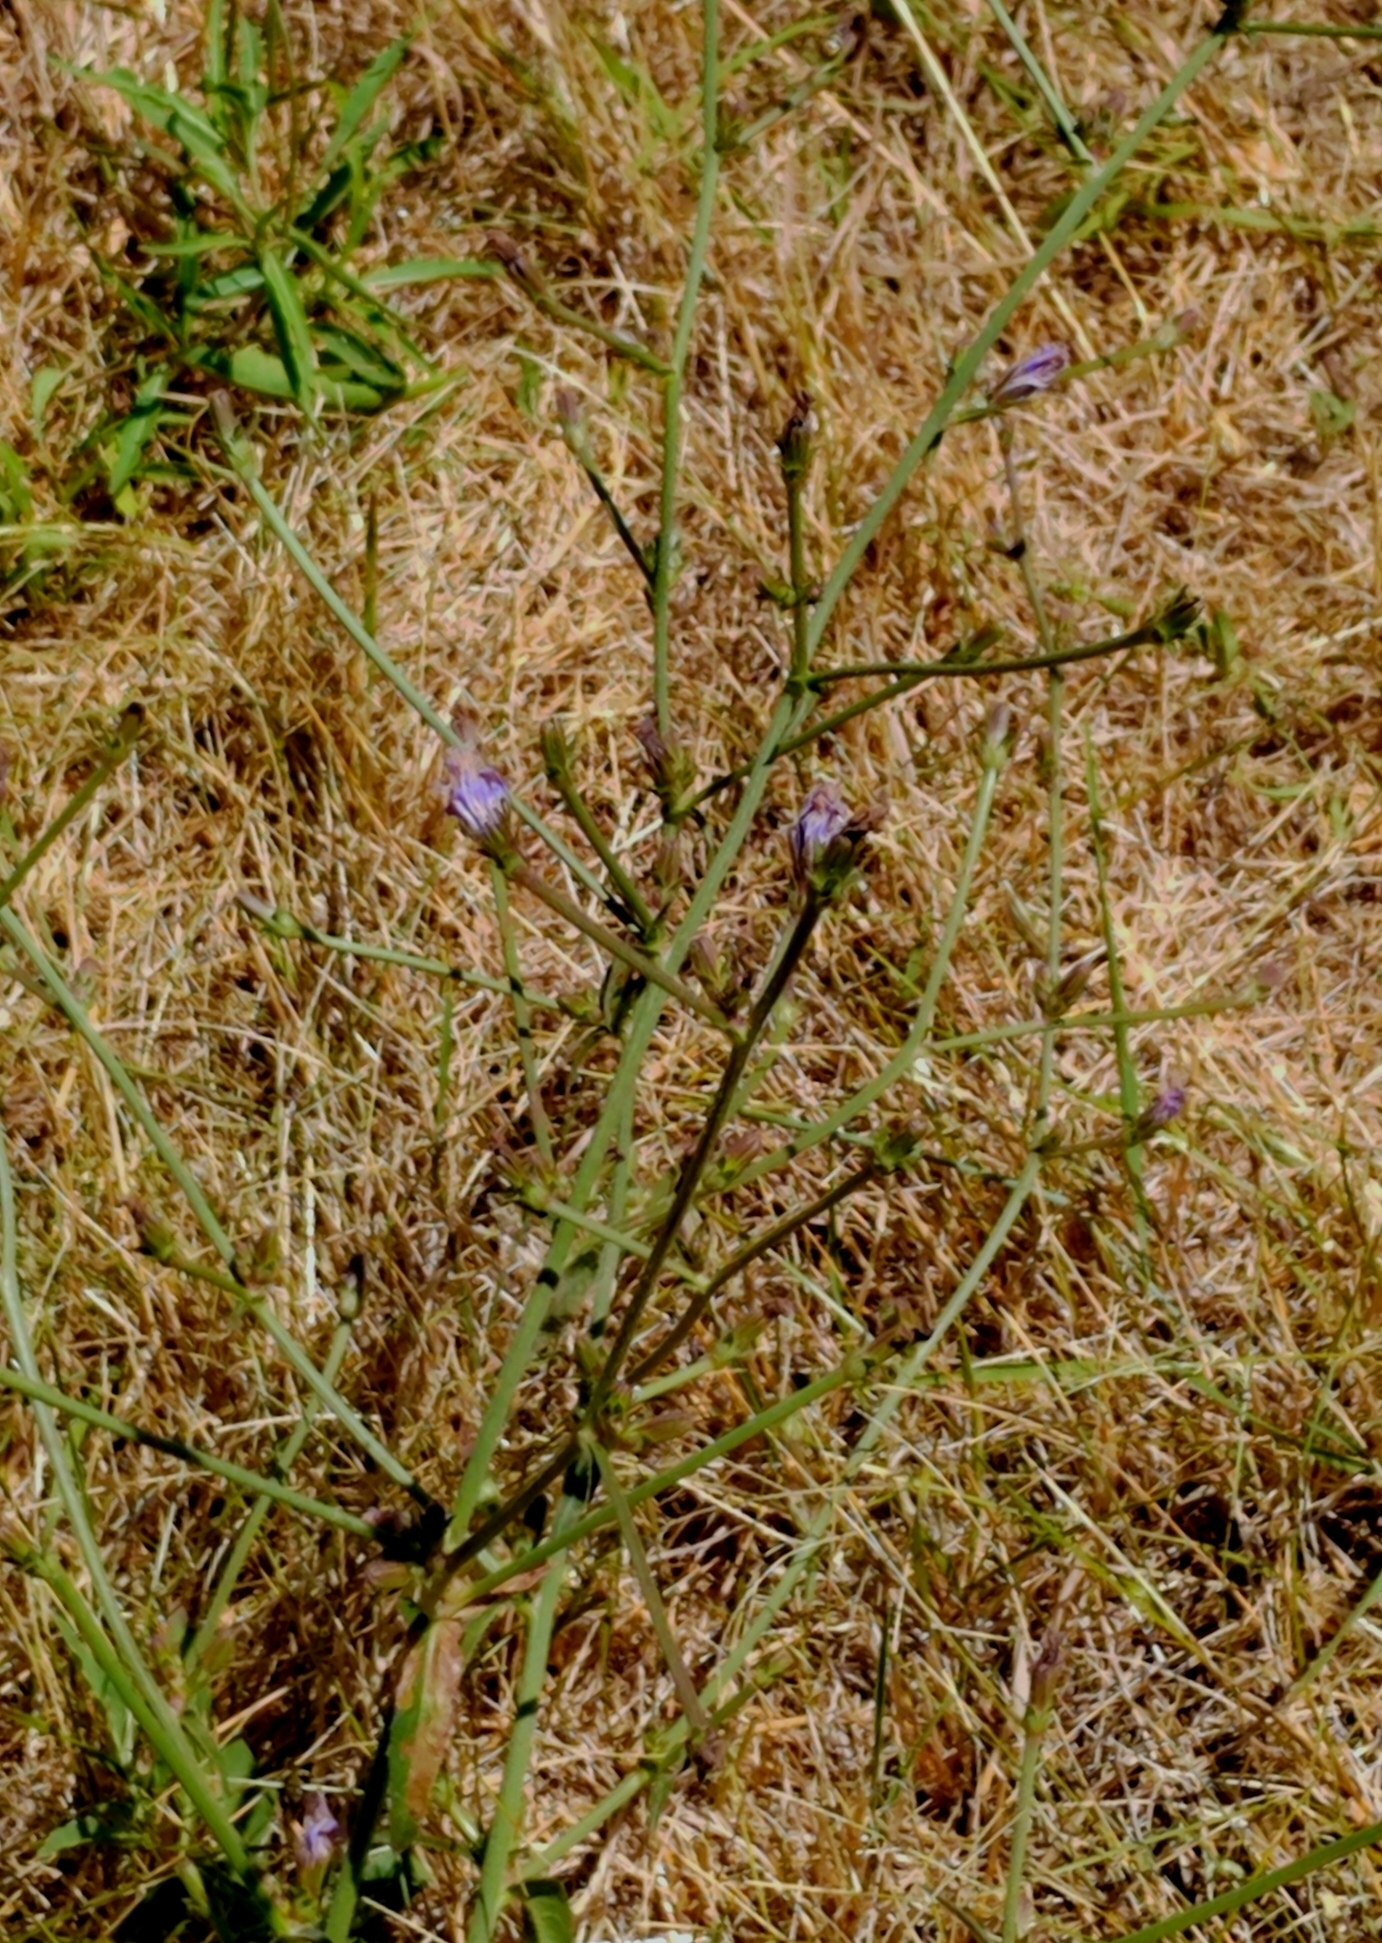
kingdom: Plantae
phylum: Tracheophyta
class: Magnoliopsida
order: Asterales
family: Asteraceae
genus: Cichorium
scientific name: Cichorium intybus
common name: Chicory
